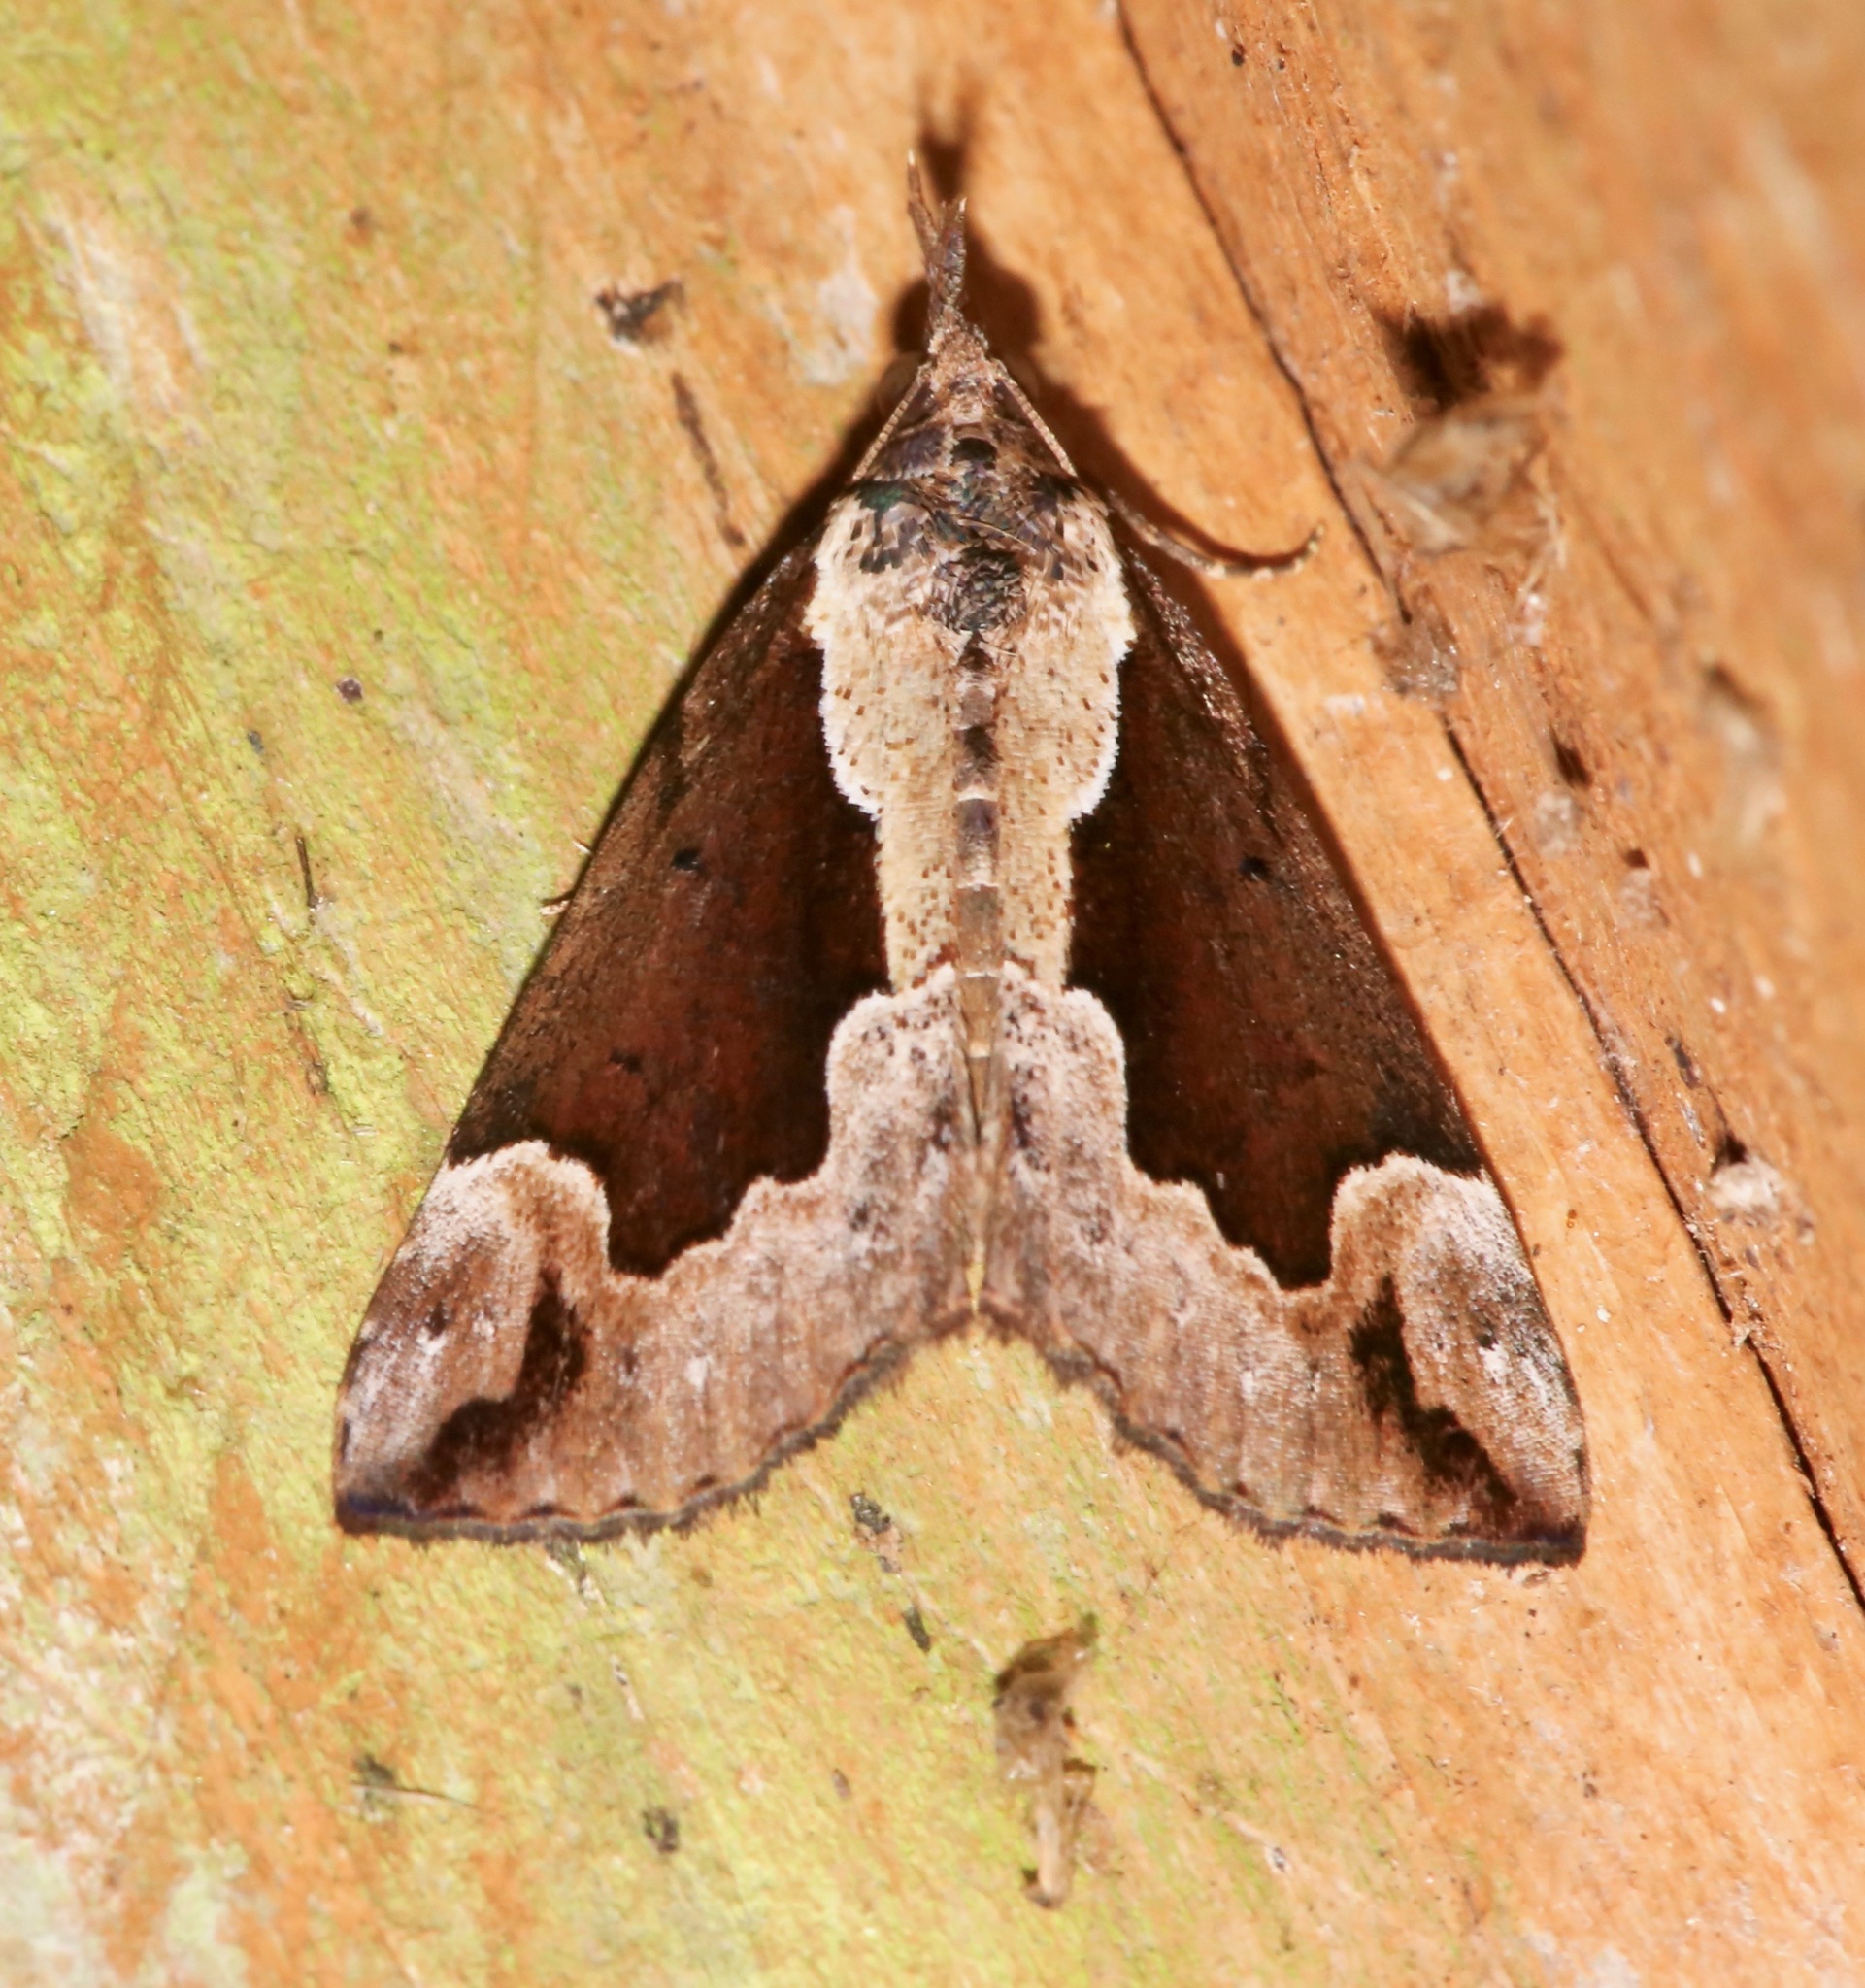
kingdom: Animalia
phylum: Arthropoda
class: Insecta
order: Lepidoptera
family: Erebidae
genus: Hypena
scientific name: Hypena baltimoralis
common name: Baltimore snout
